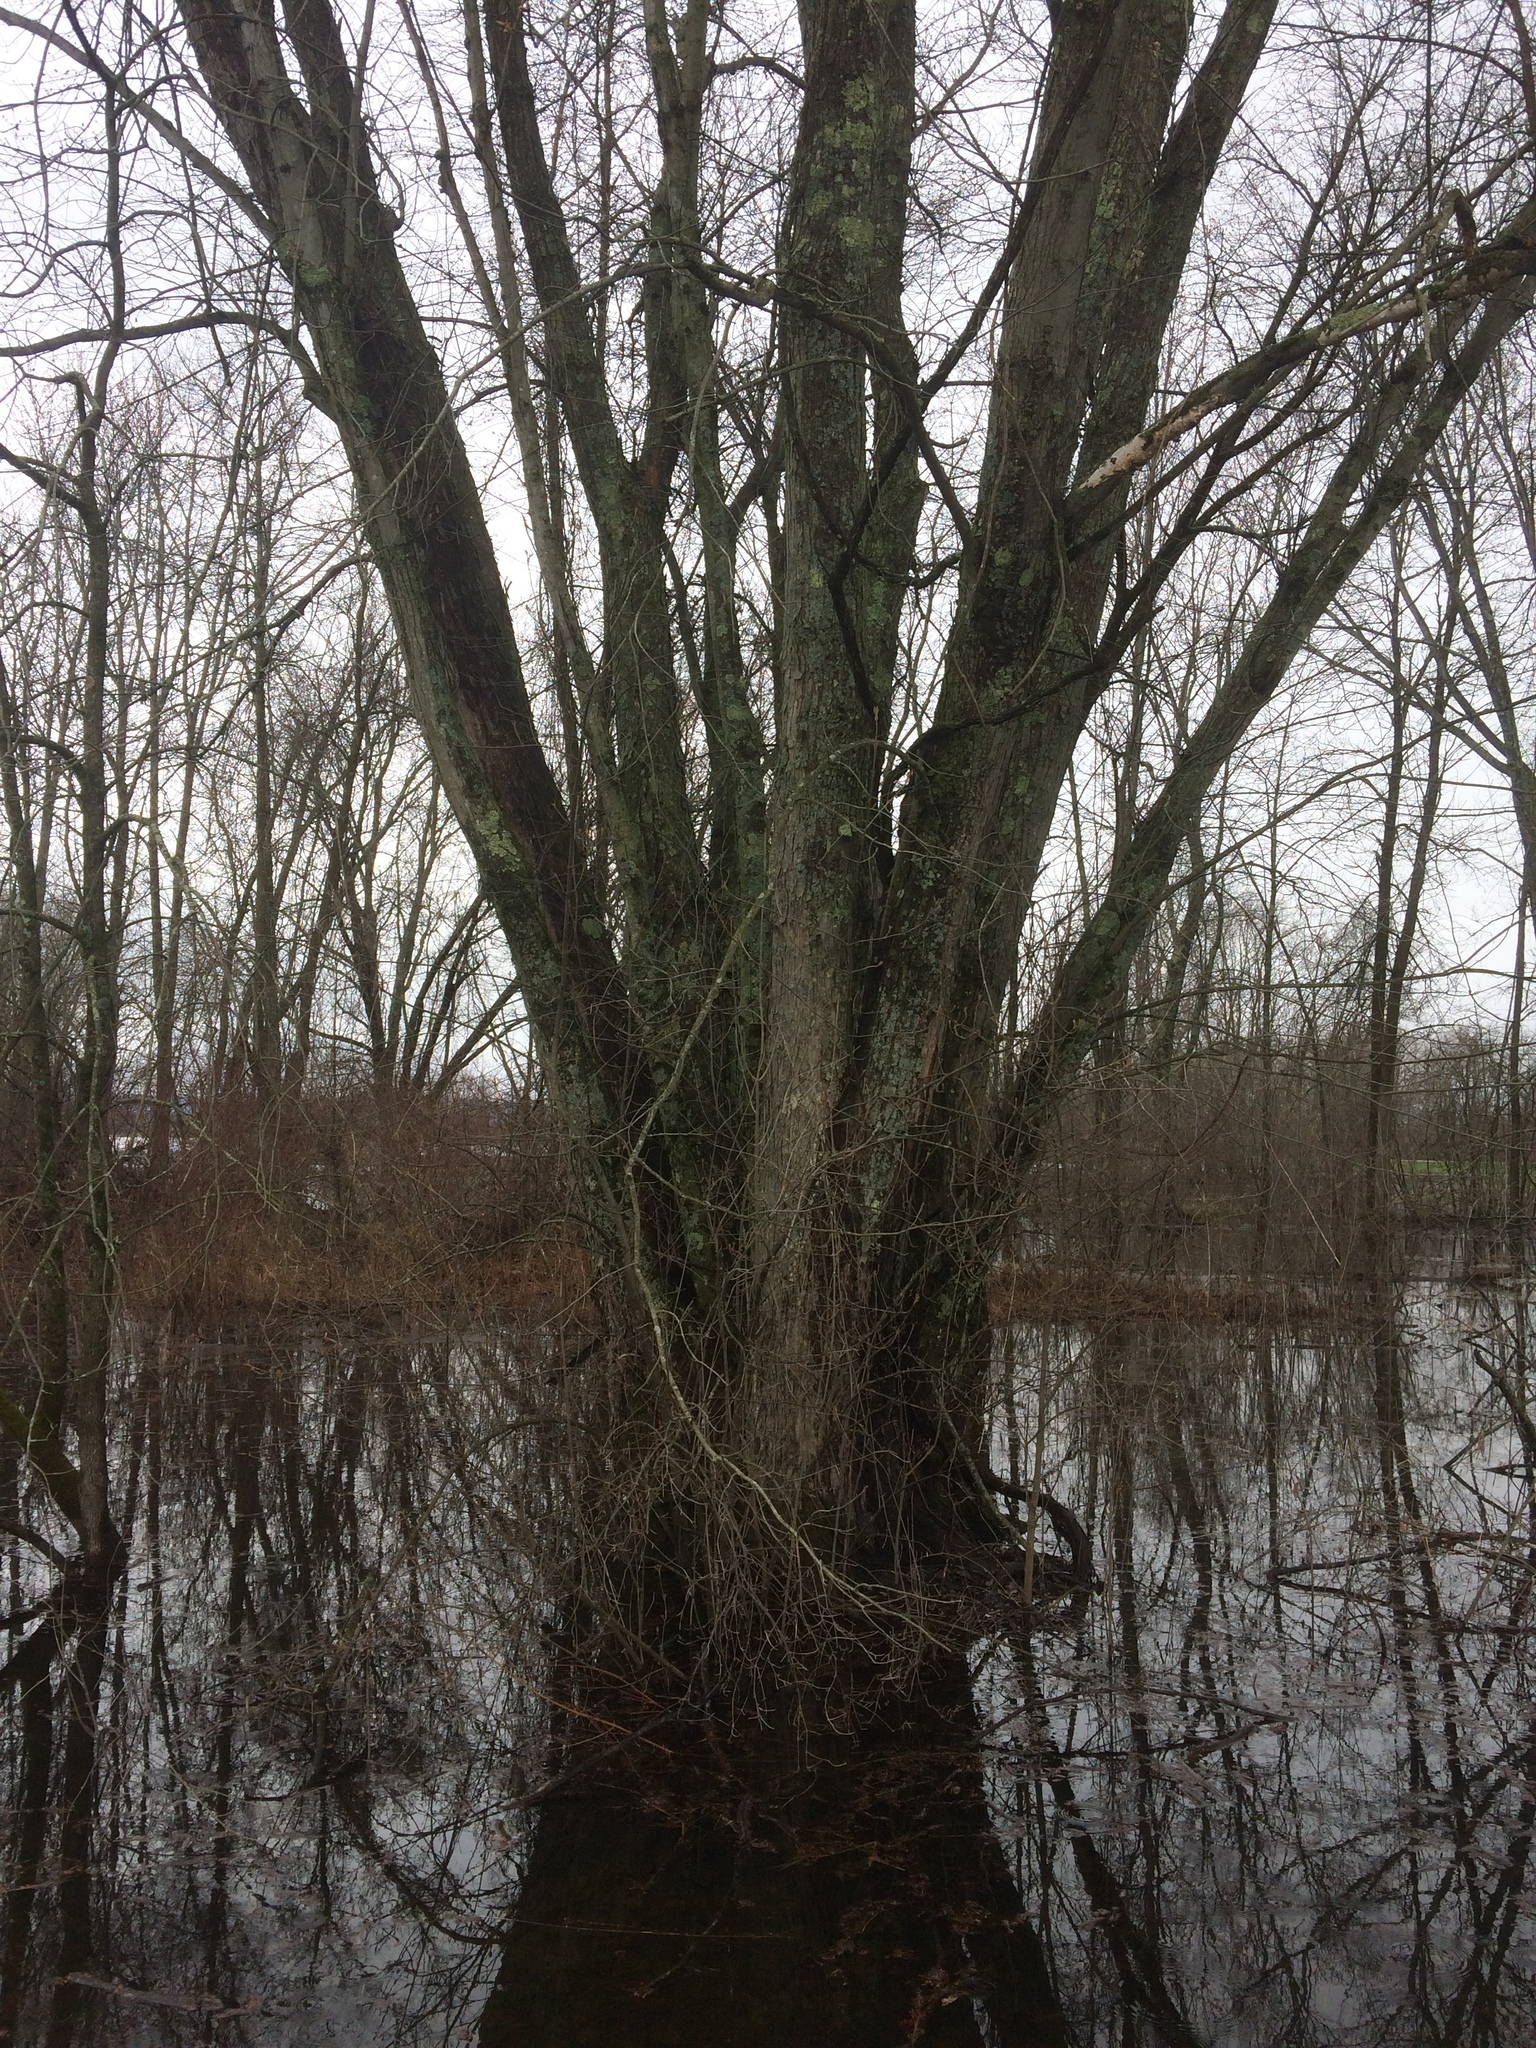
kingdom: Plantae
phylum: Tracheophyta
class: Magnoliopsida
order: Sapindales
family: Sapindaceae
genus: Acer
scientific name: Acer saccharinum
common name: Silver maple
